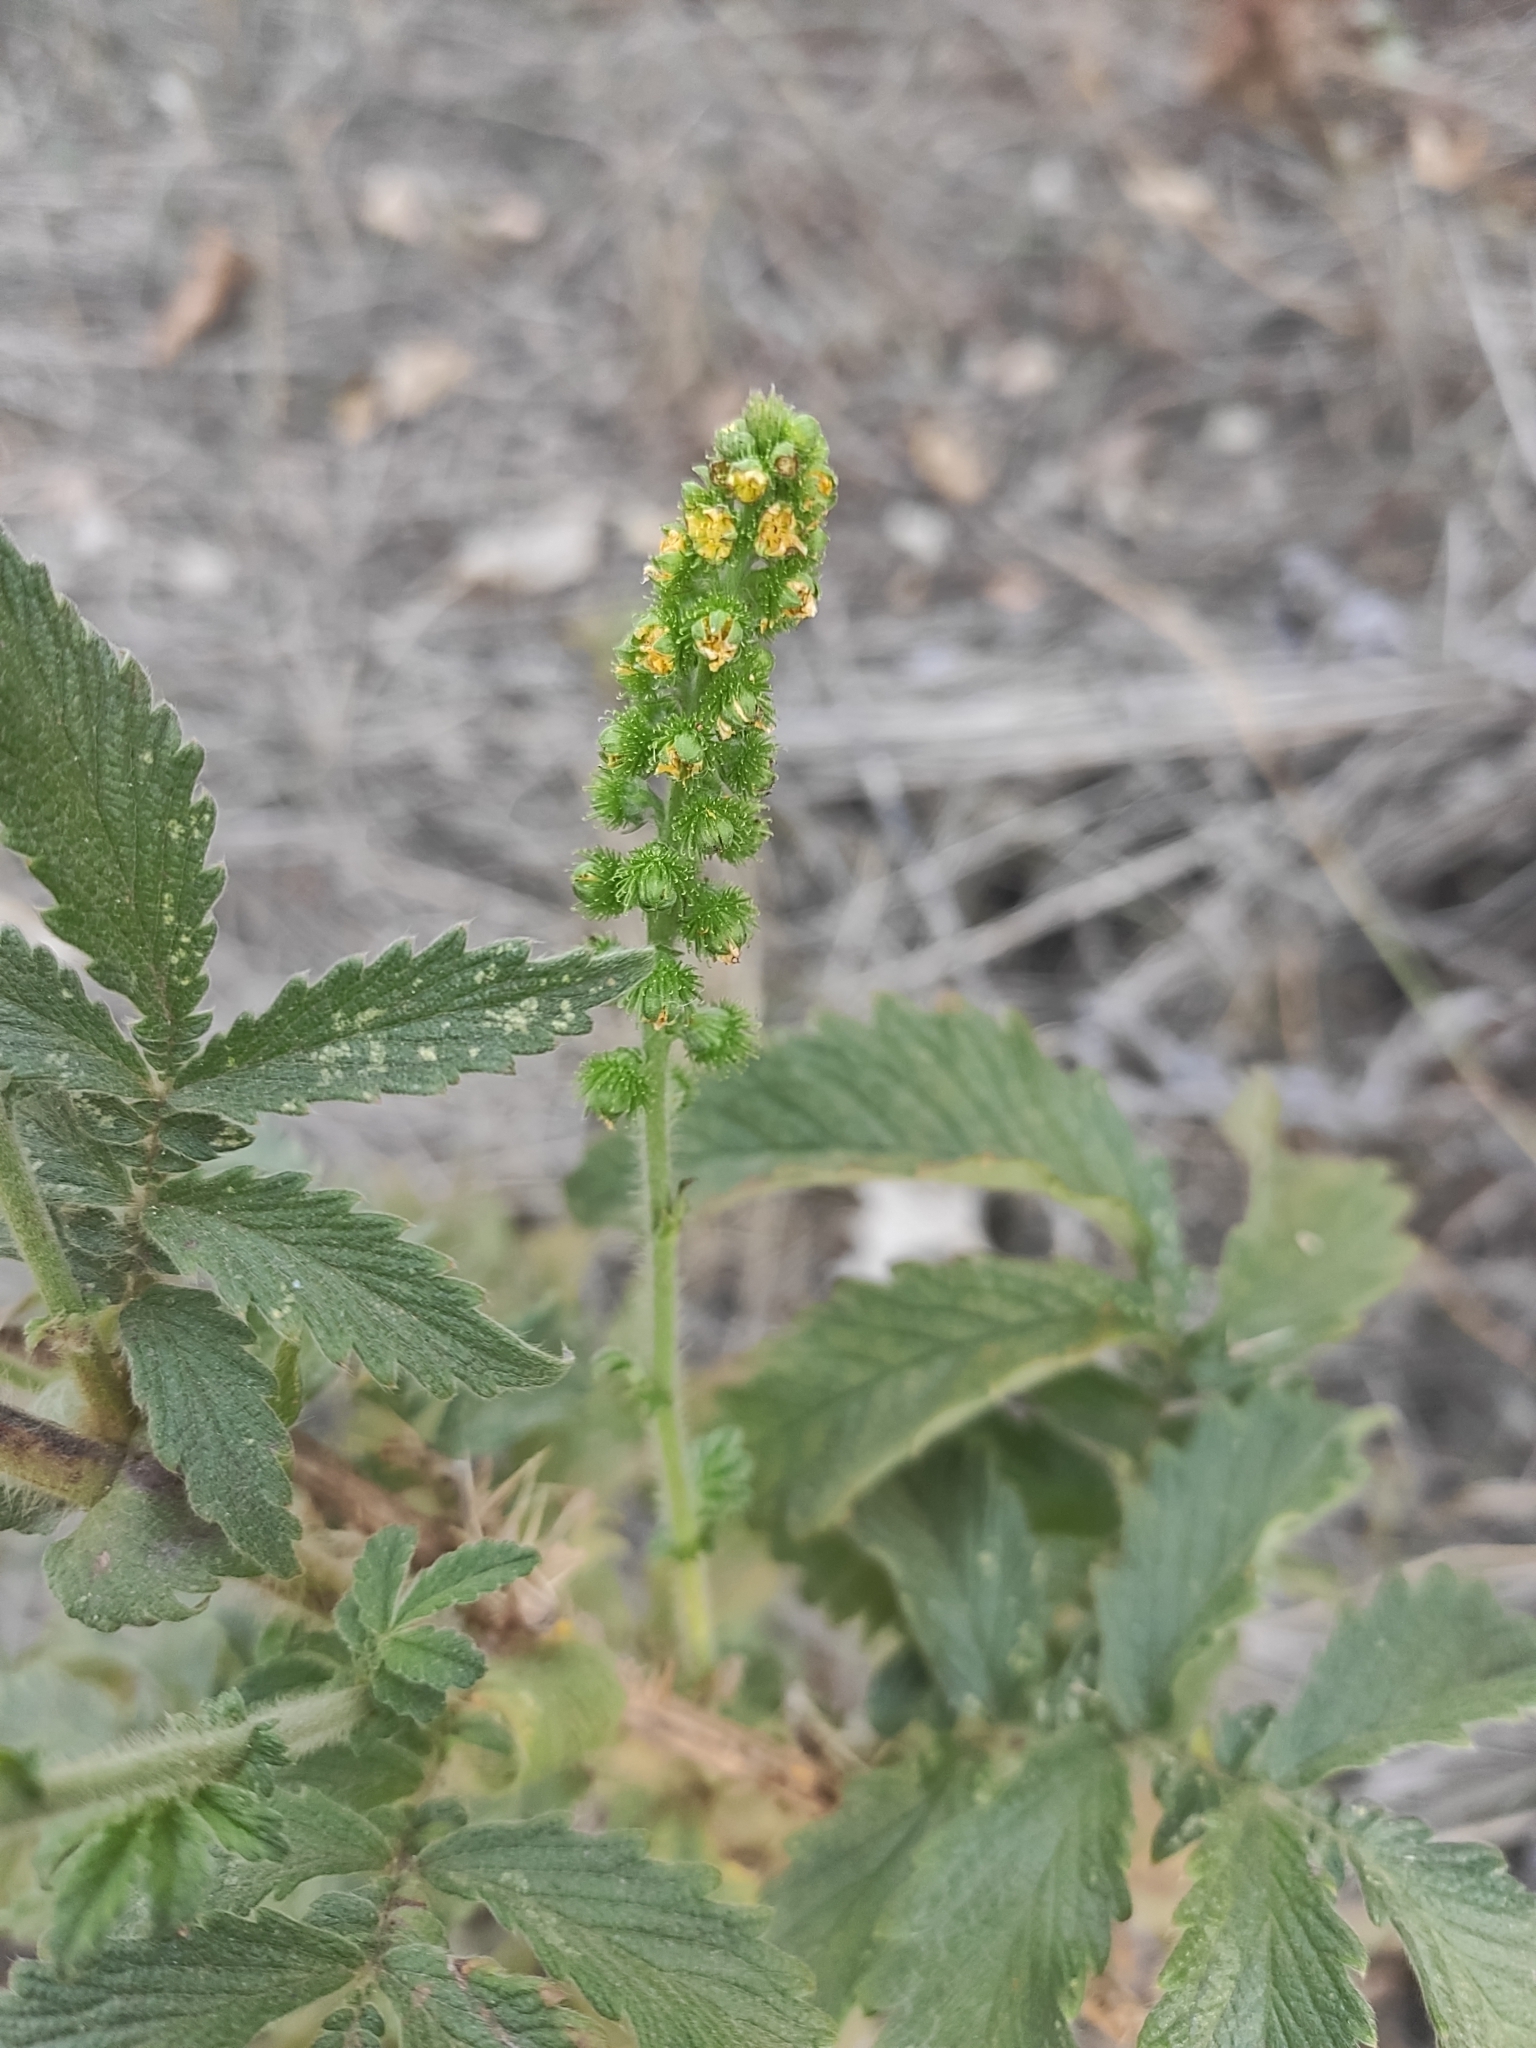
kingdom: Plantae
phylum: Tracheophyta
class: Magnoliopsida
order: Rosales
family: Rosaceae
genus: Agrimonia
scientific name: Agrimonia eupatoria
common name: Agrimony
